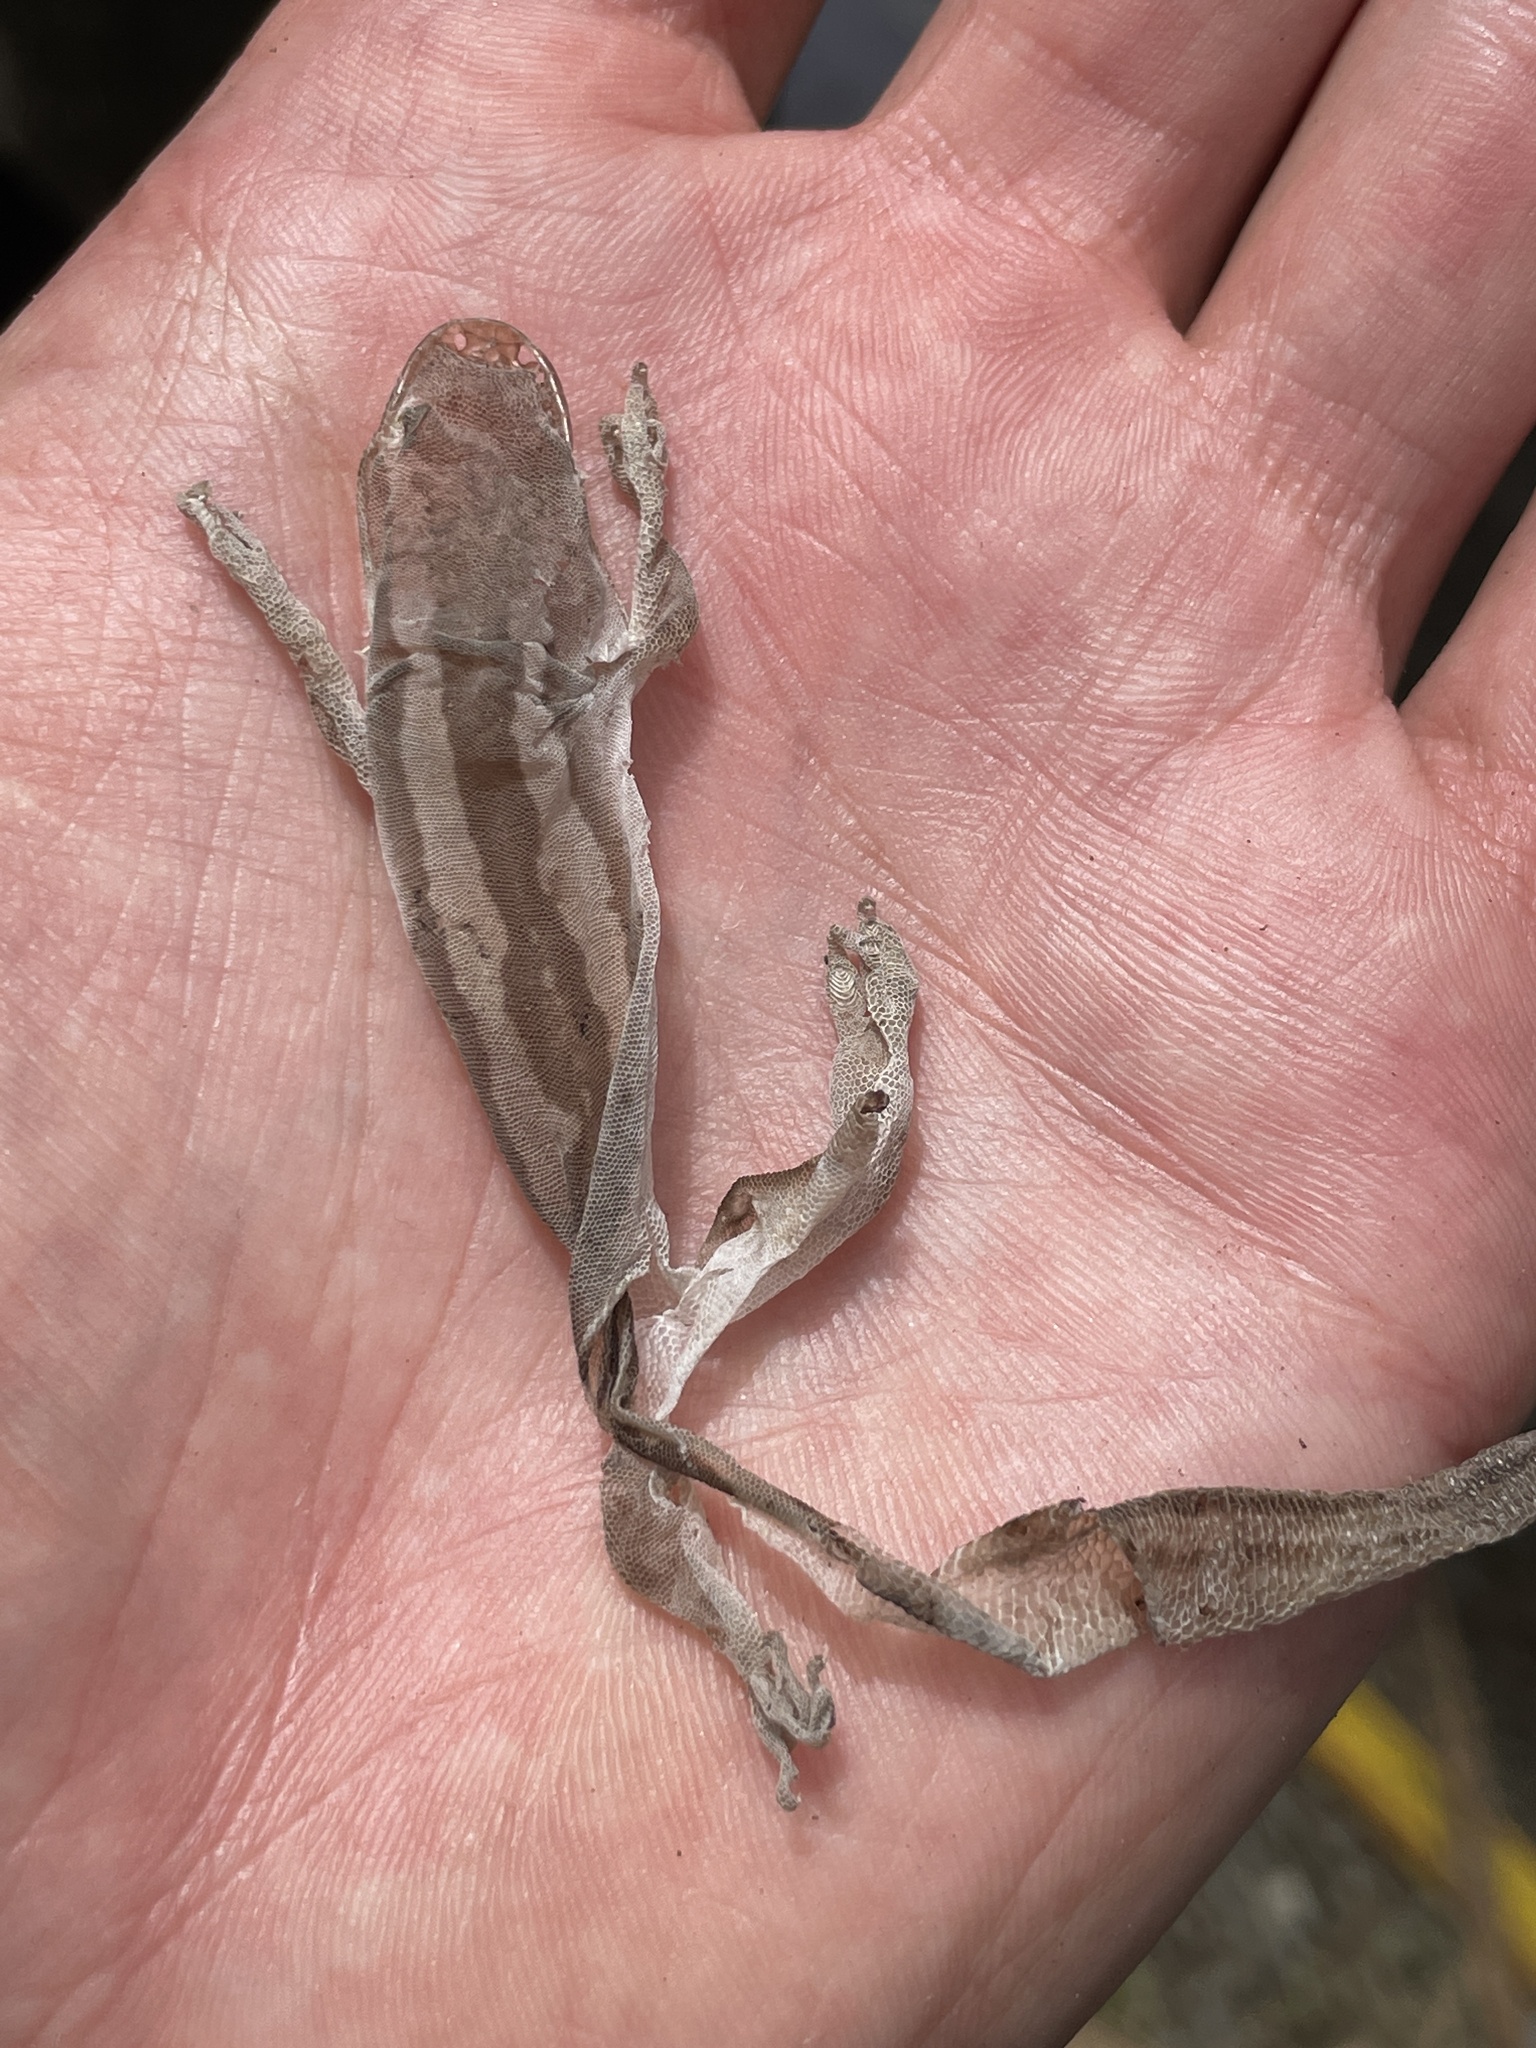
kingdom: Animalia
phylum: Chordata
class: Squamata
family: Diplodactylidae
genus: Woodworthia
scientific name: Woodworthia
